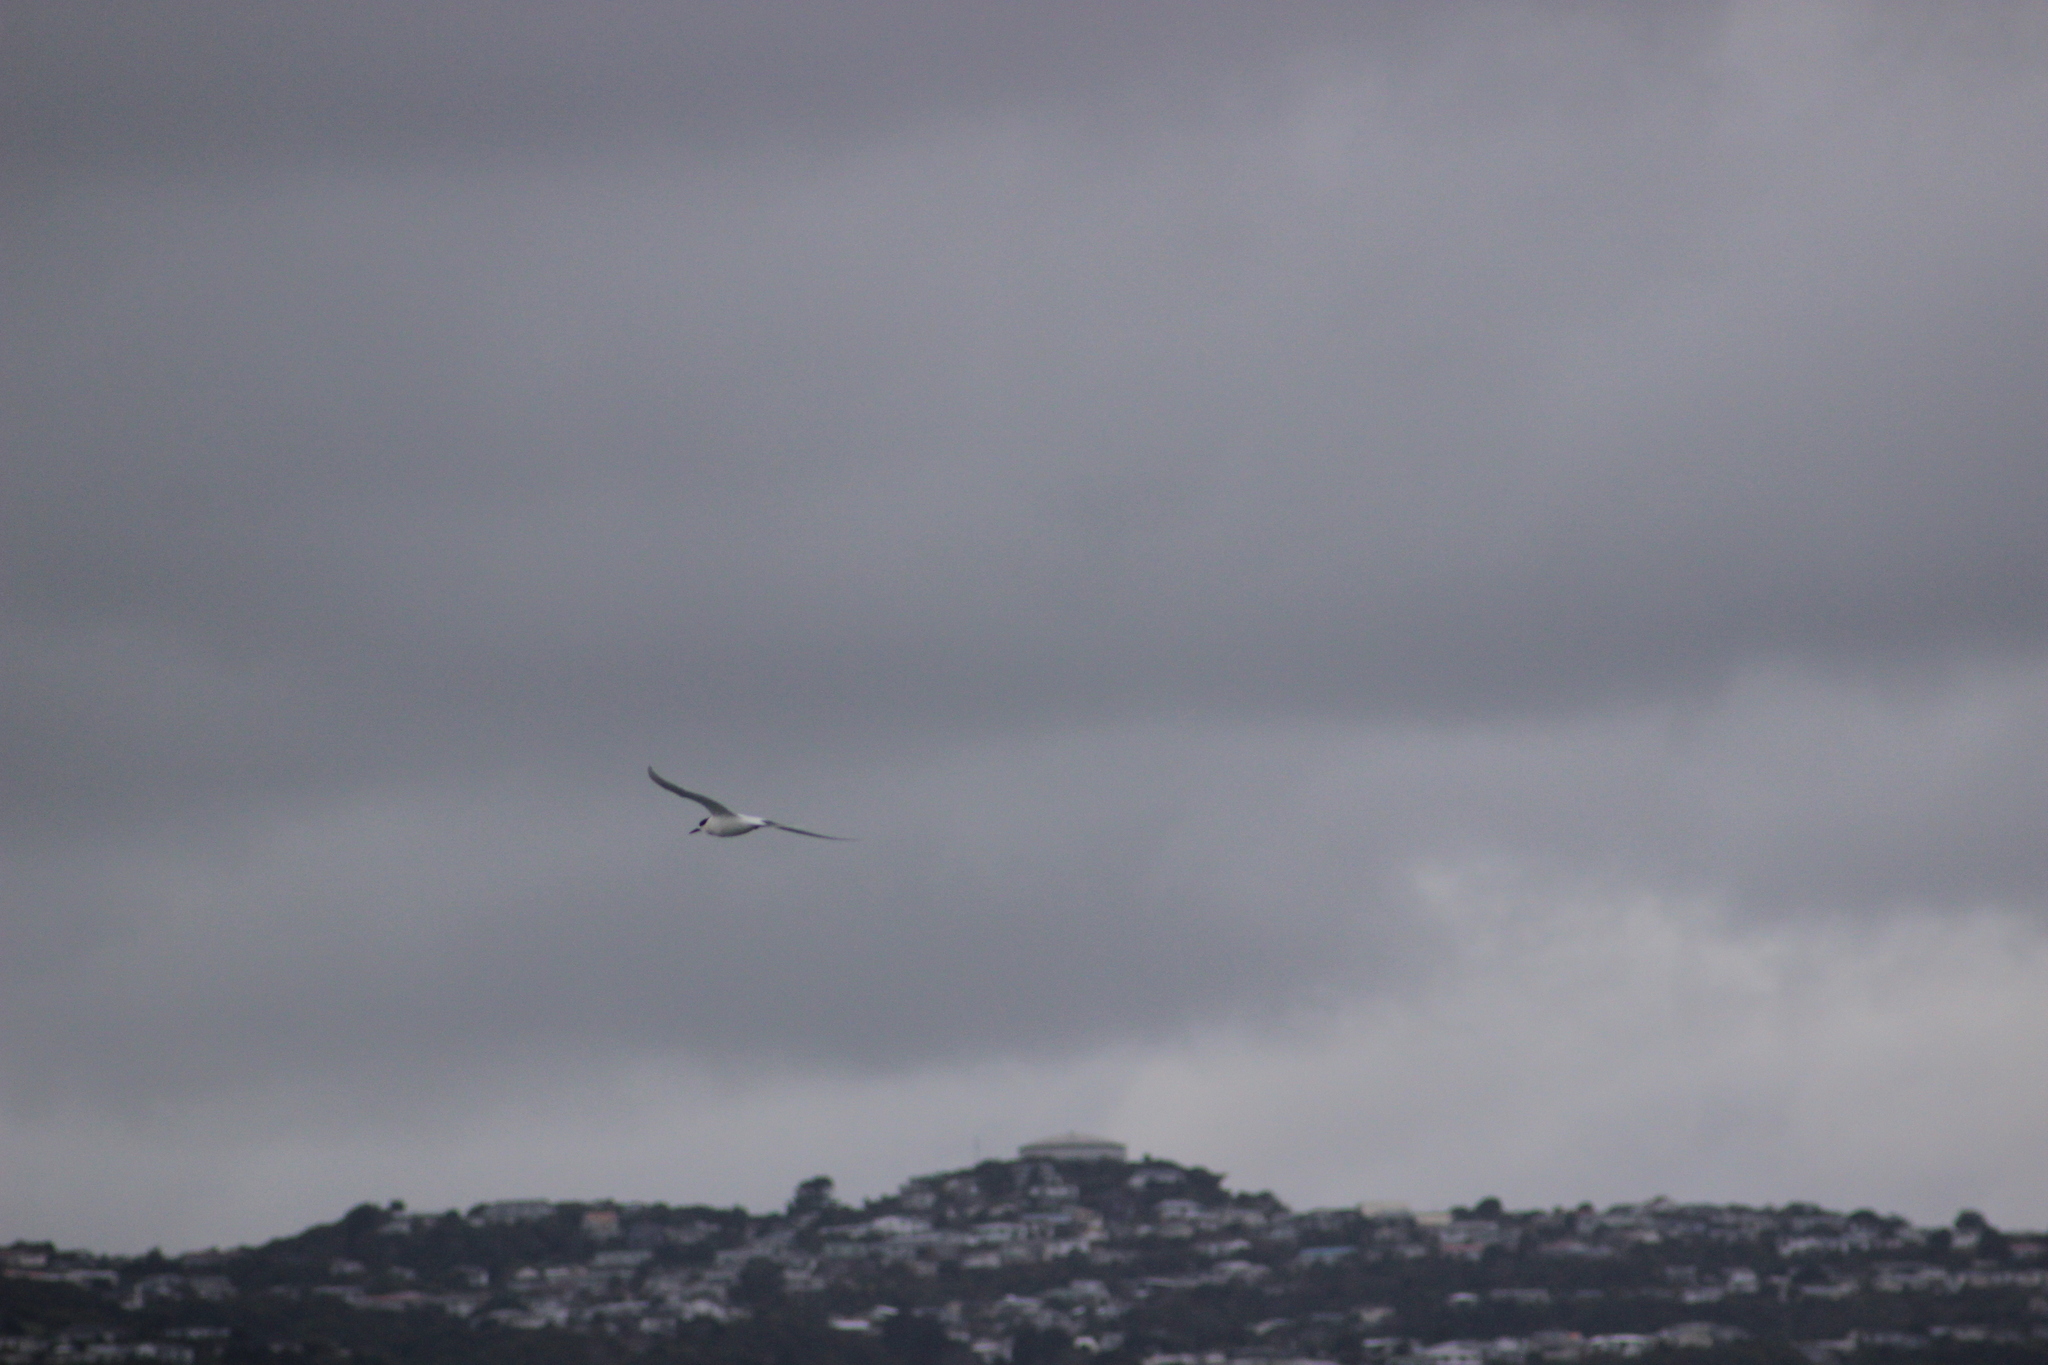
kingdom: Animalia
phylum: Chordata
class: Aves
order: Charadriiformes
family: Laridae
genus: Sterna
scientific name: Sterna striata
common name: White-fronted tern
